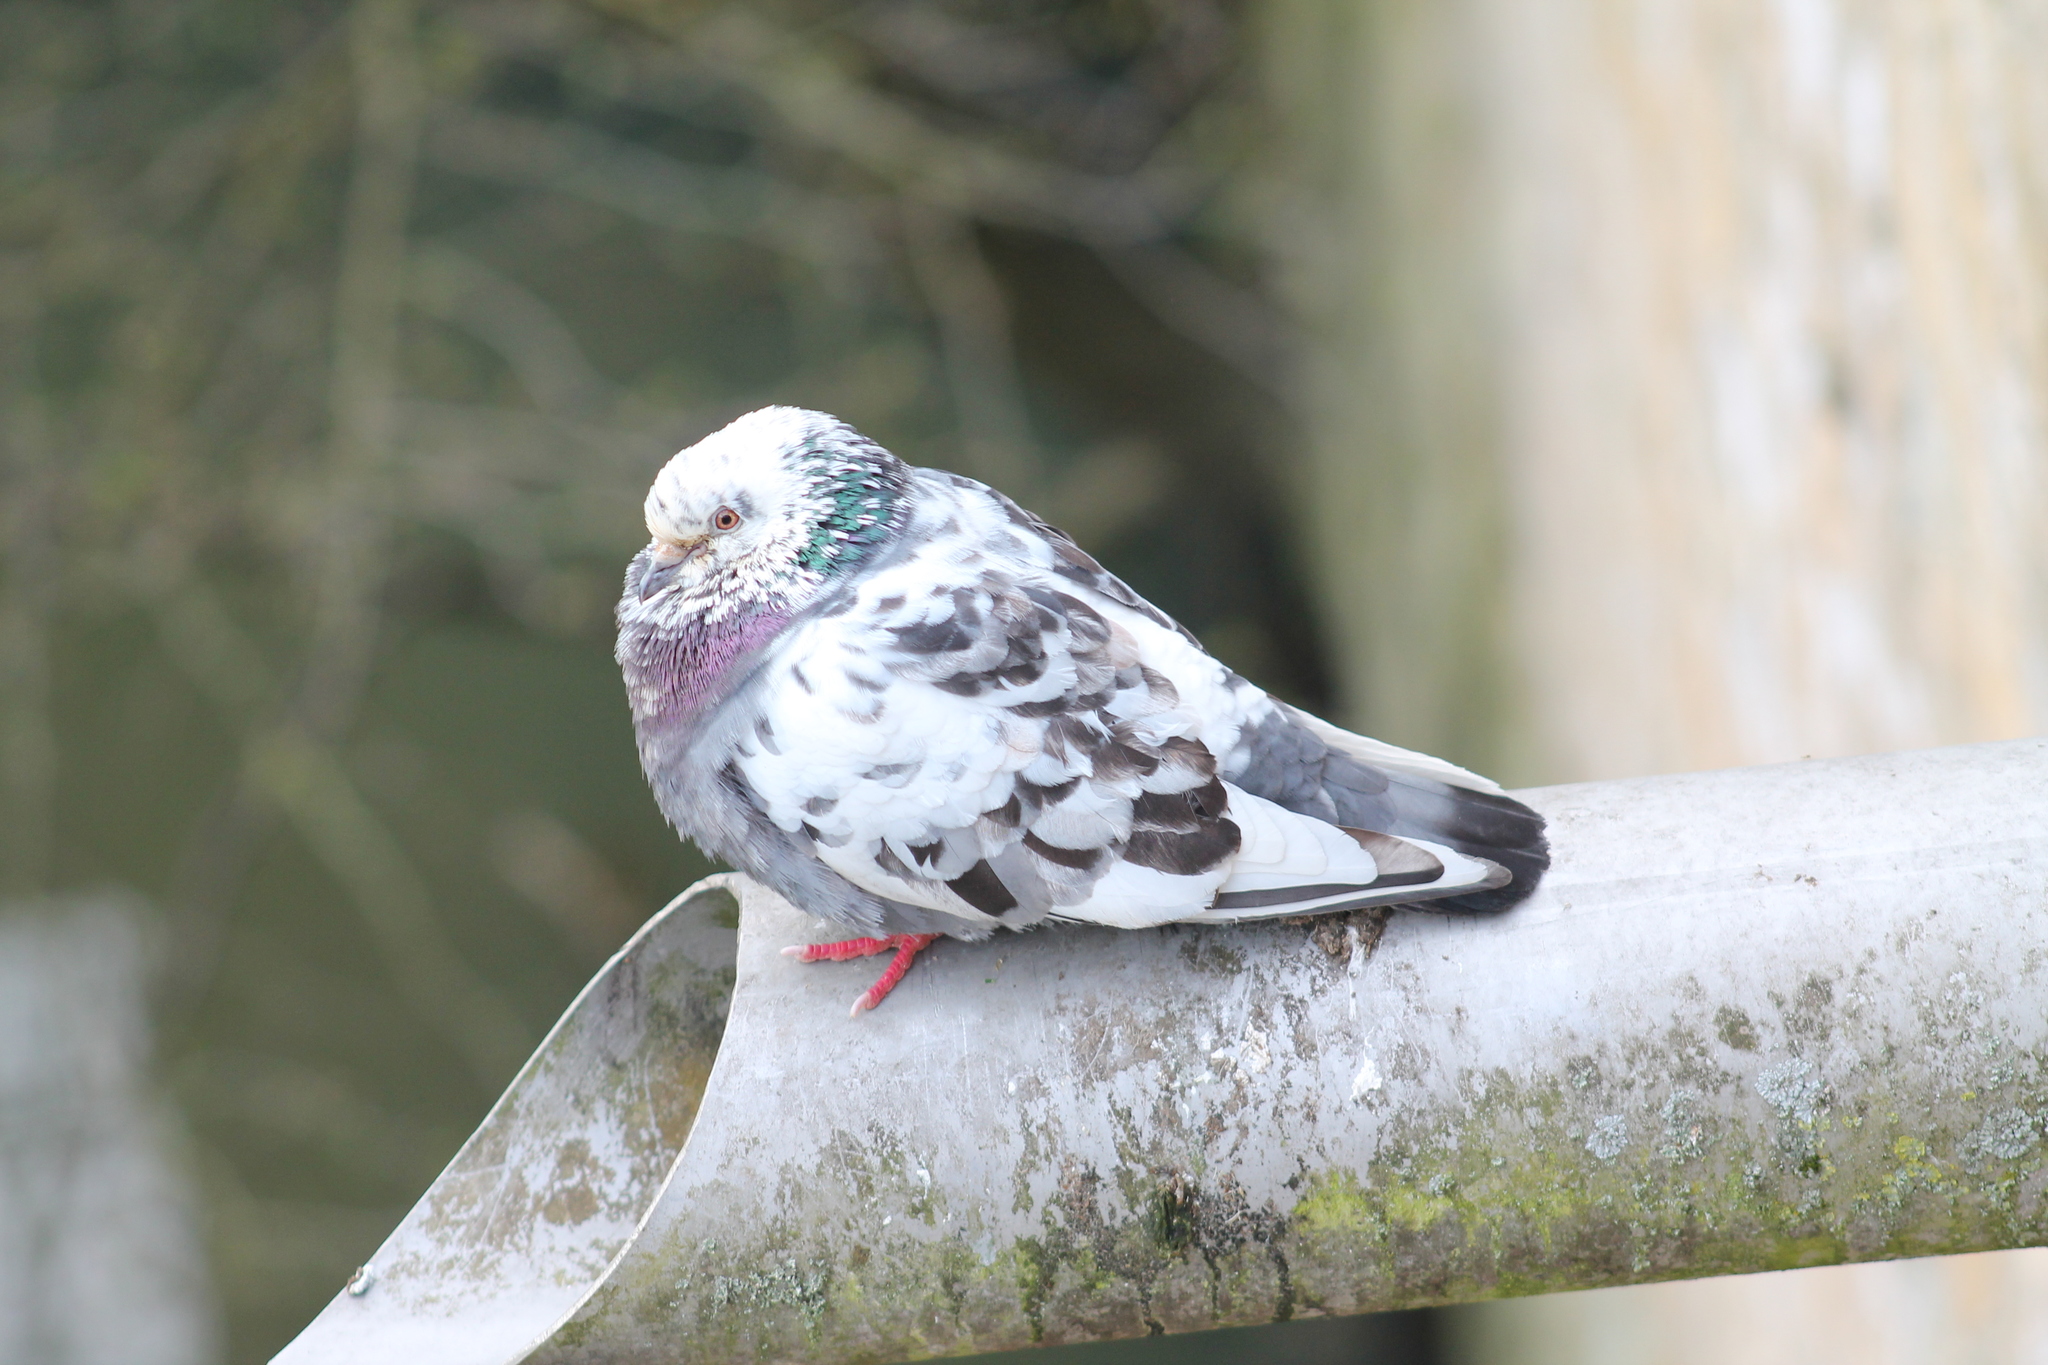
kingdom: Animalia
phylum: Chordata
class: Aves
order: Columbiformes
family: Columbidae
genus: Columba
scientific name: Columba livia
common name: Rock pigeon
